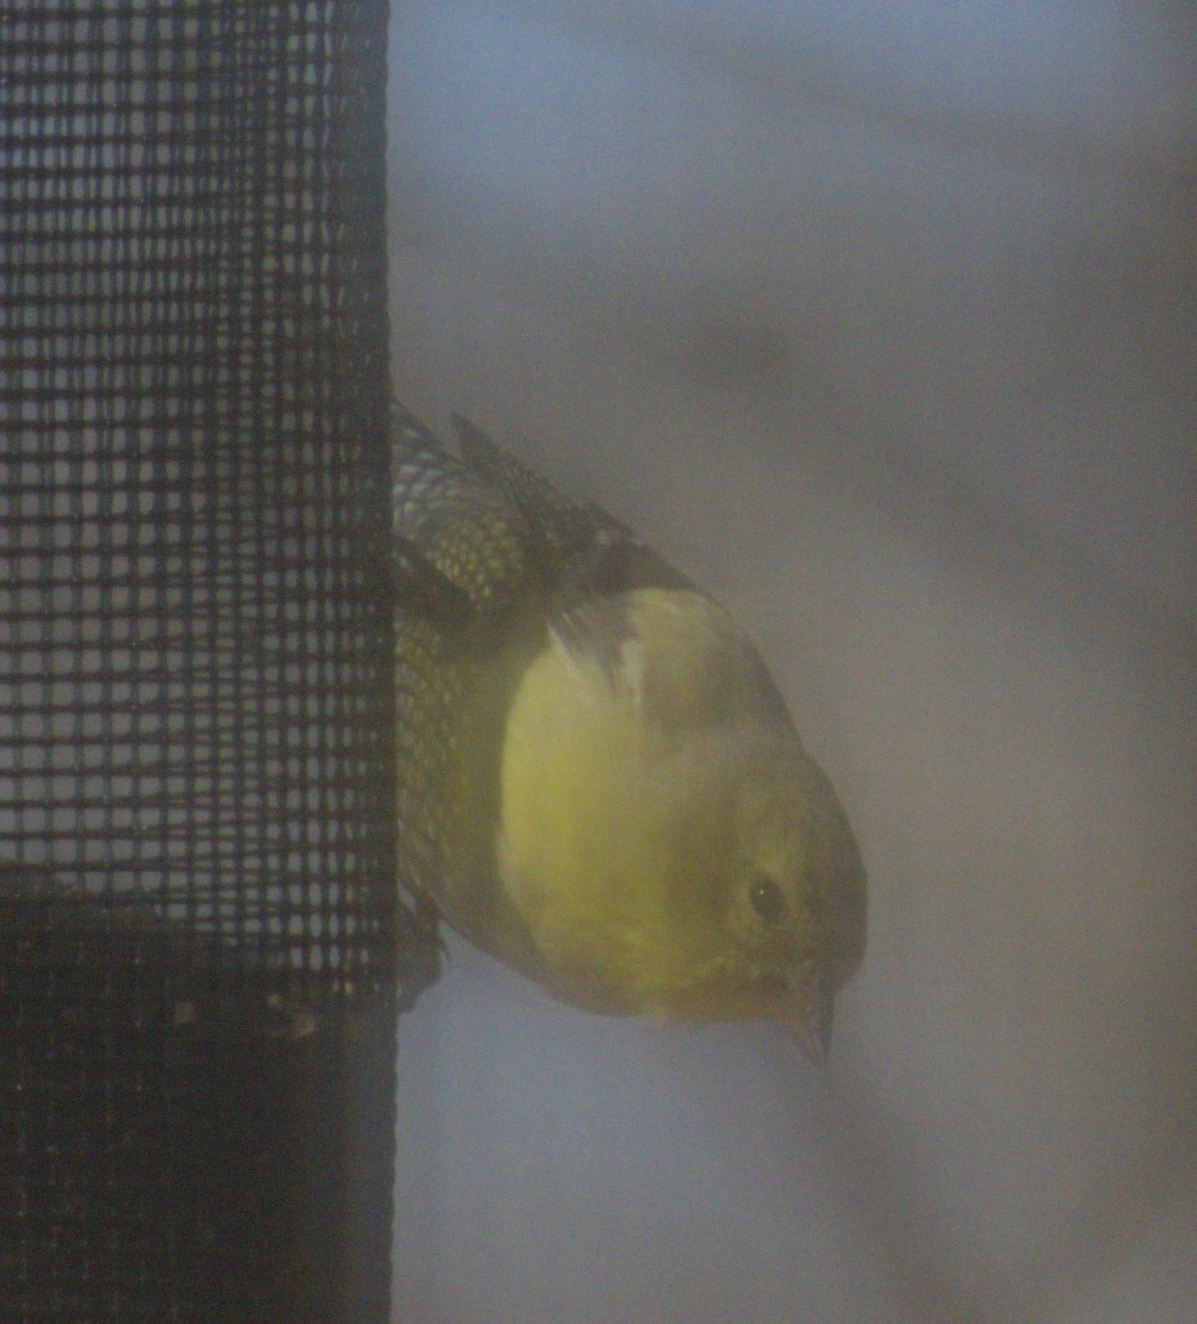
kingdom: Animalia
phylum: Chordata
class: Aves
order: Passeriformes
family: Fringillidae
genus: Spinus
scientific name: Spinus tristis
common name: American goldfinch
